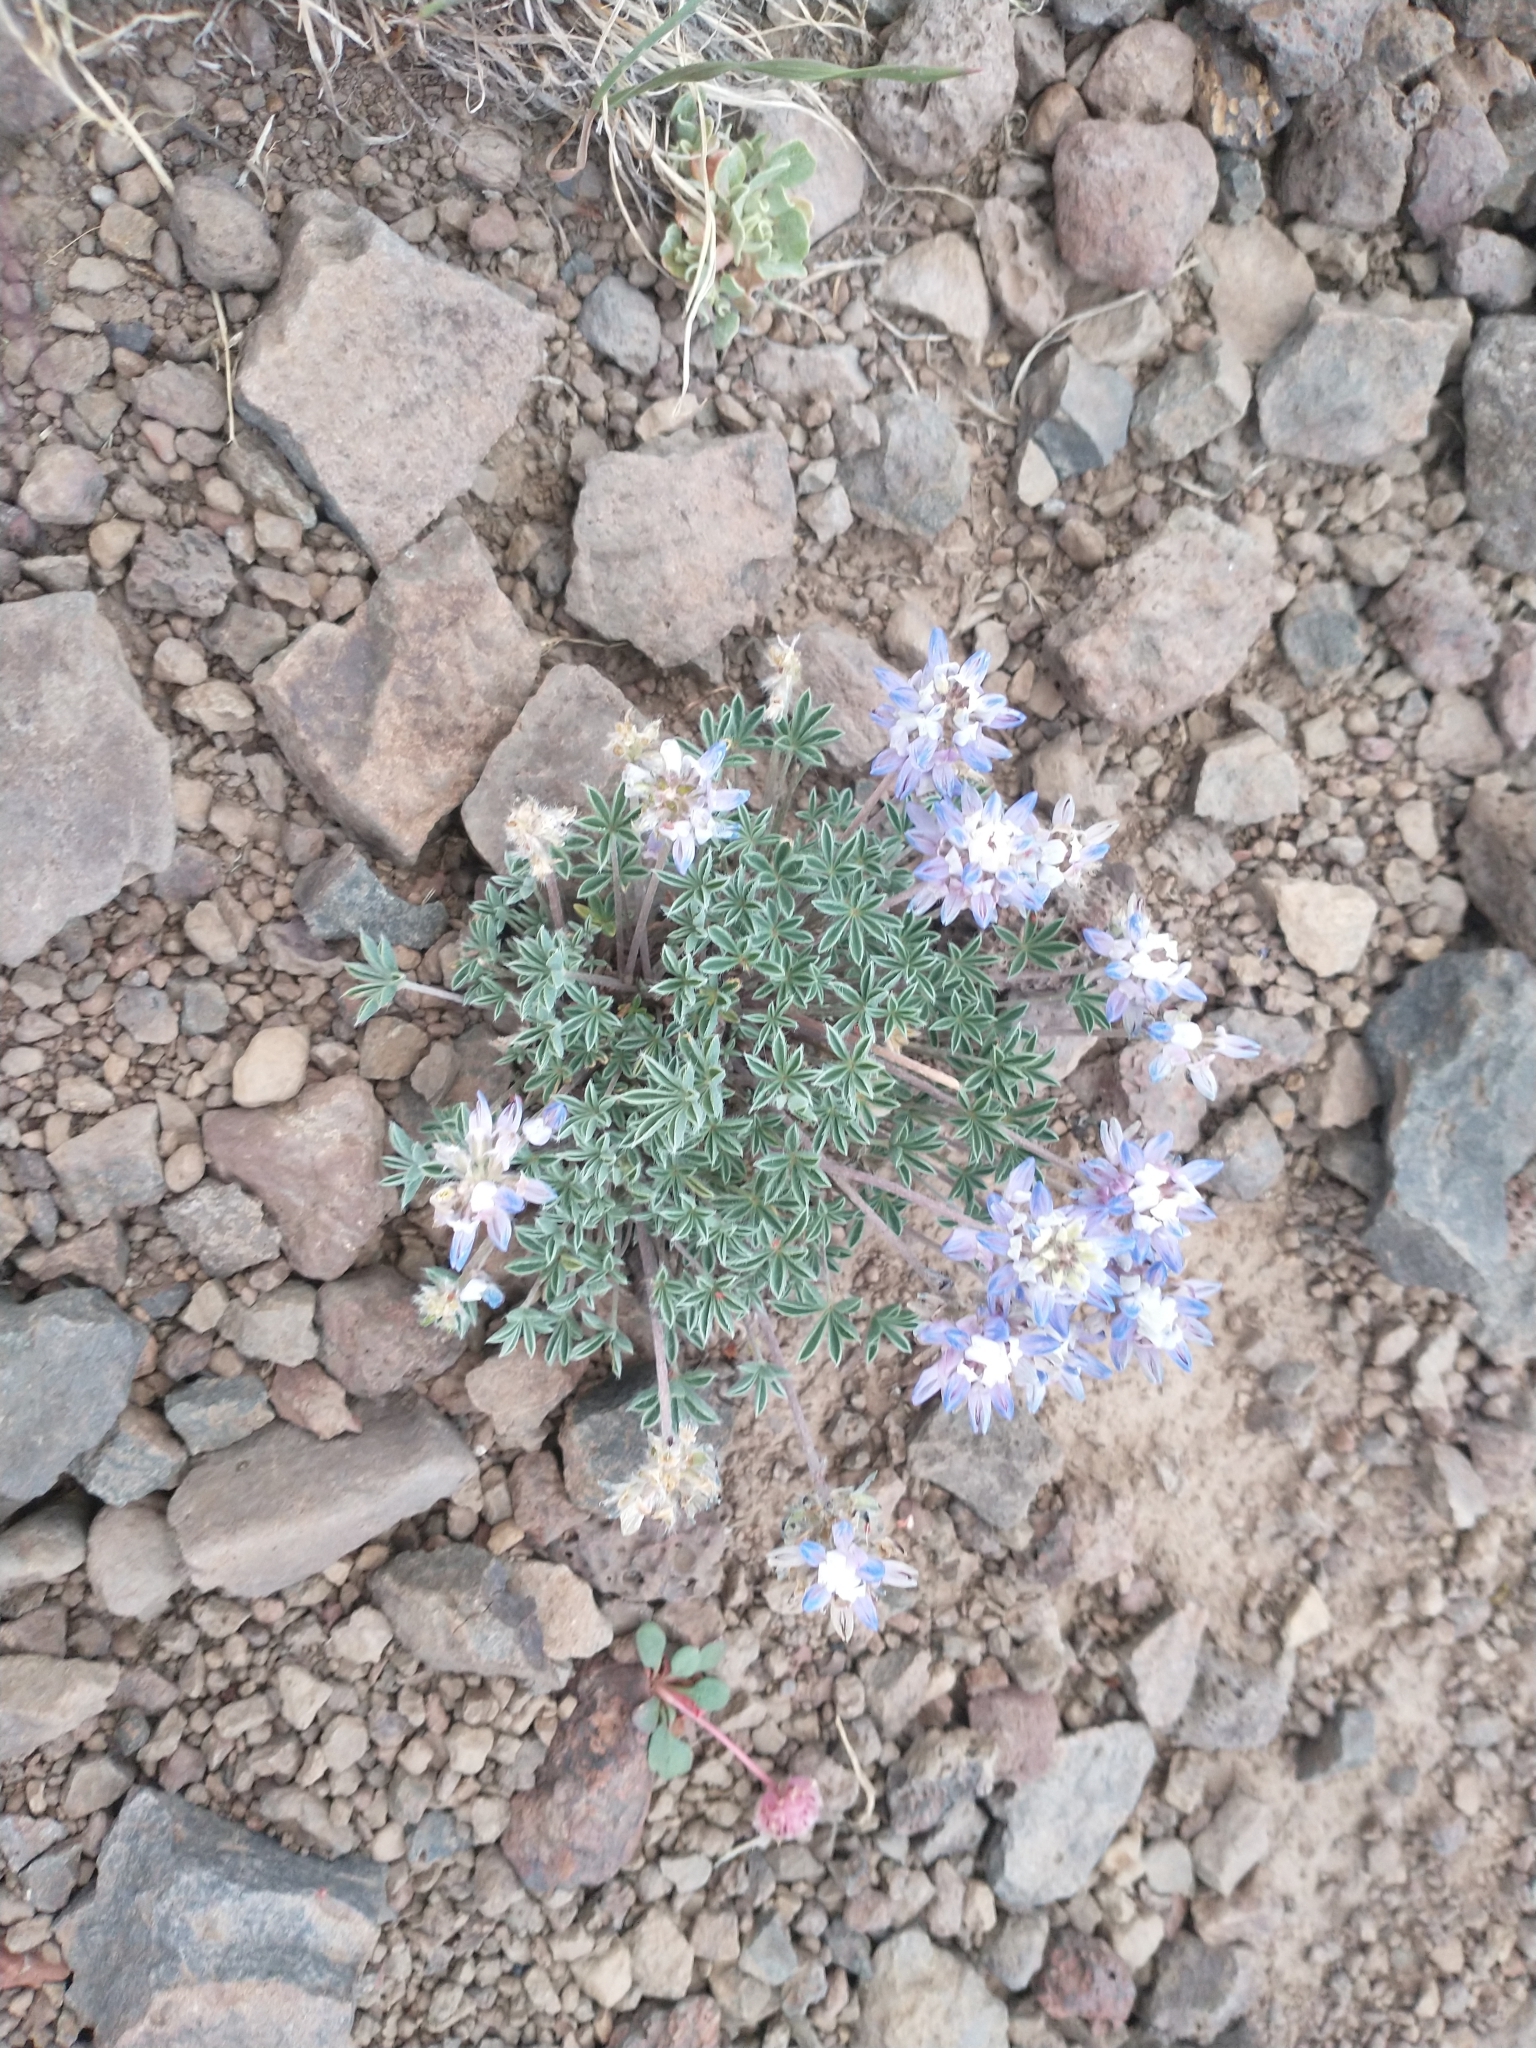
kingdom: Plantae
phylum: Tracheophyta
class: Magnoliopsida
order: Fabales
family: Fabaceae
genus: Lupinus
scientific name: Lupinus lepidus
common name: Prairie lupine
